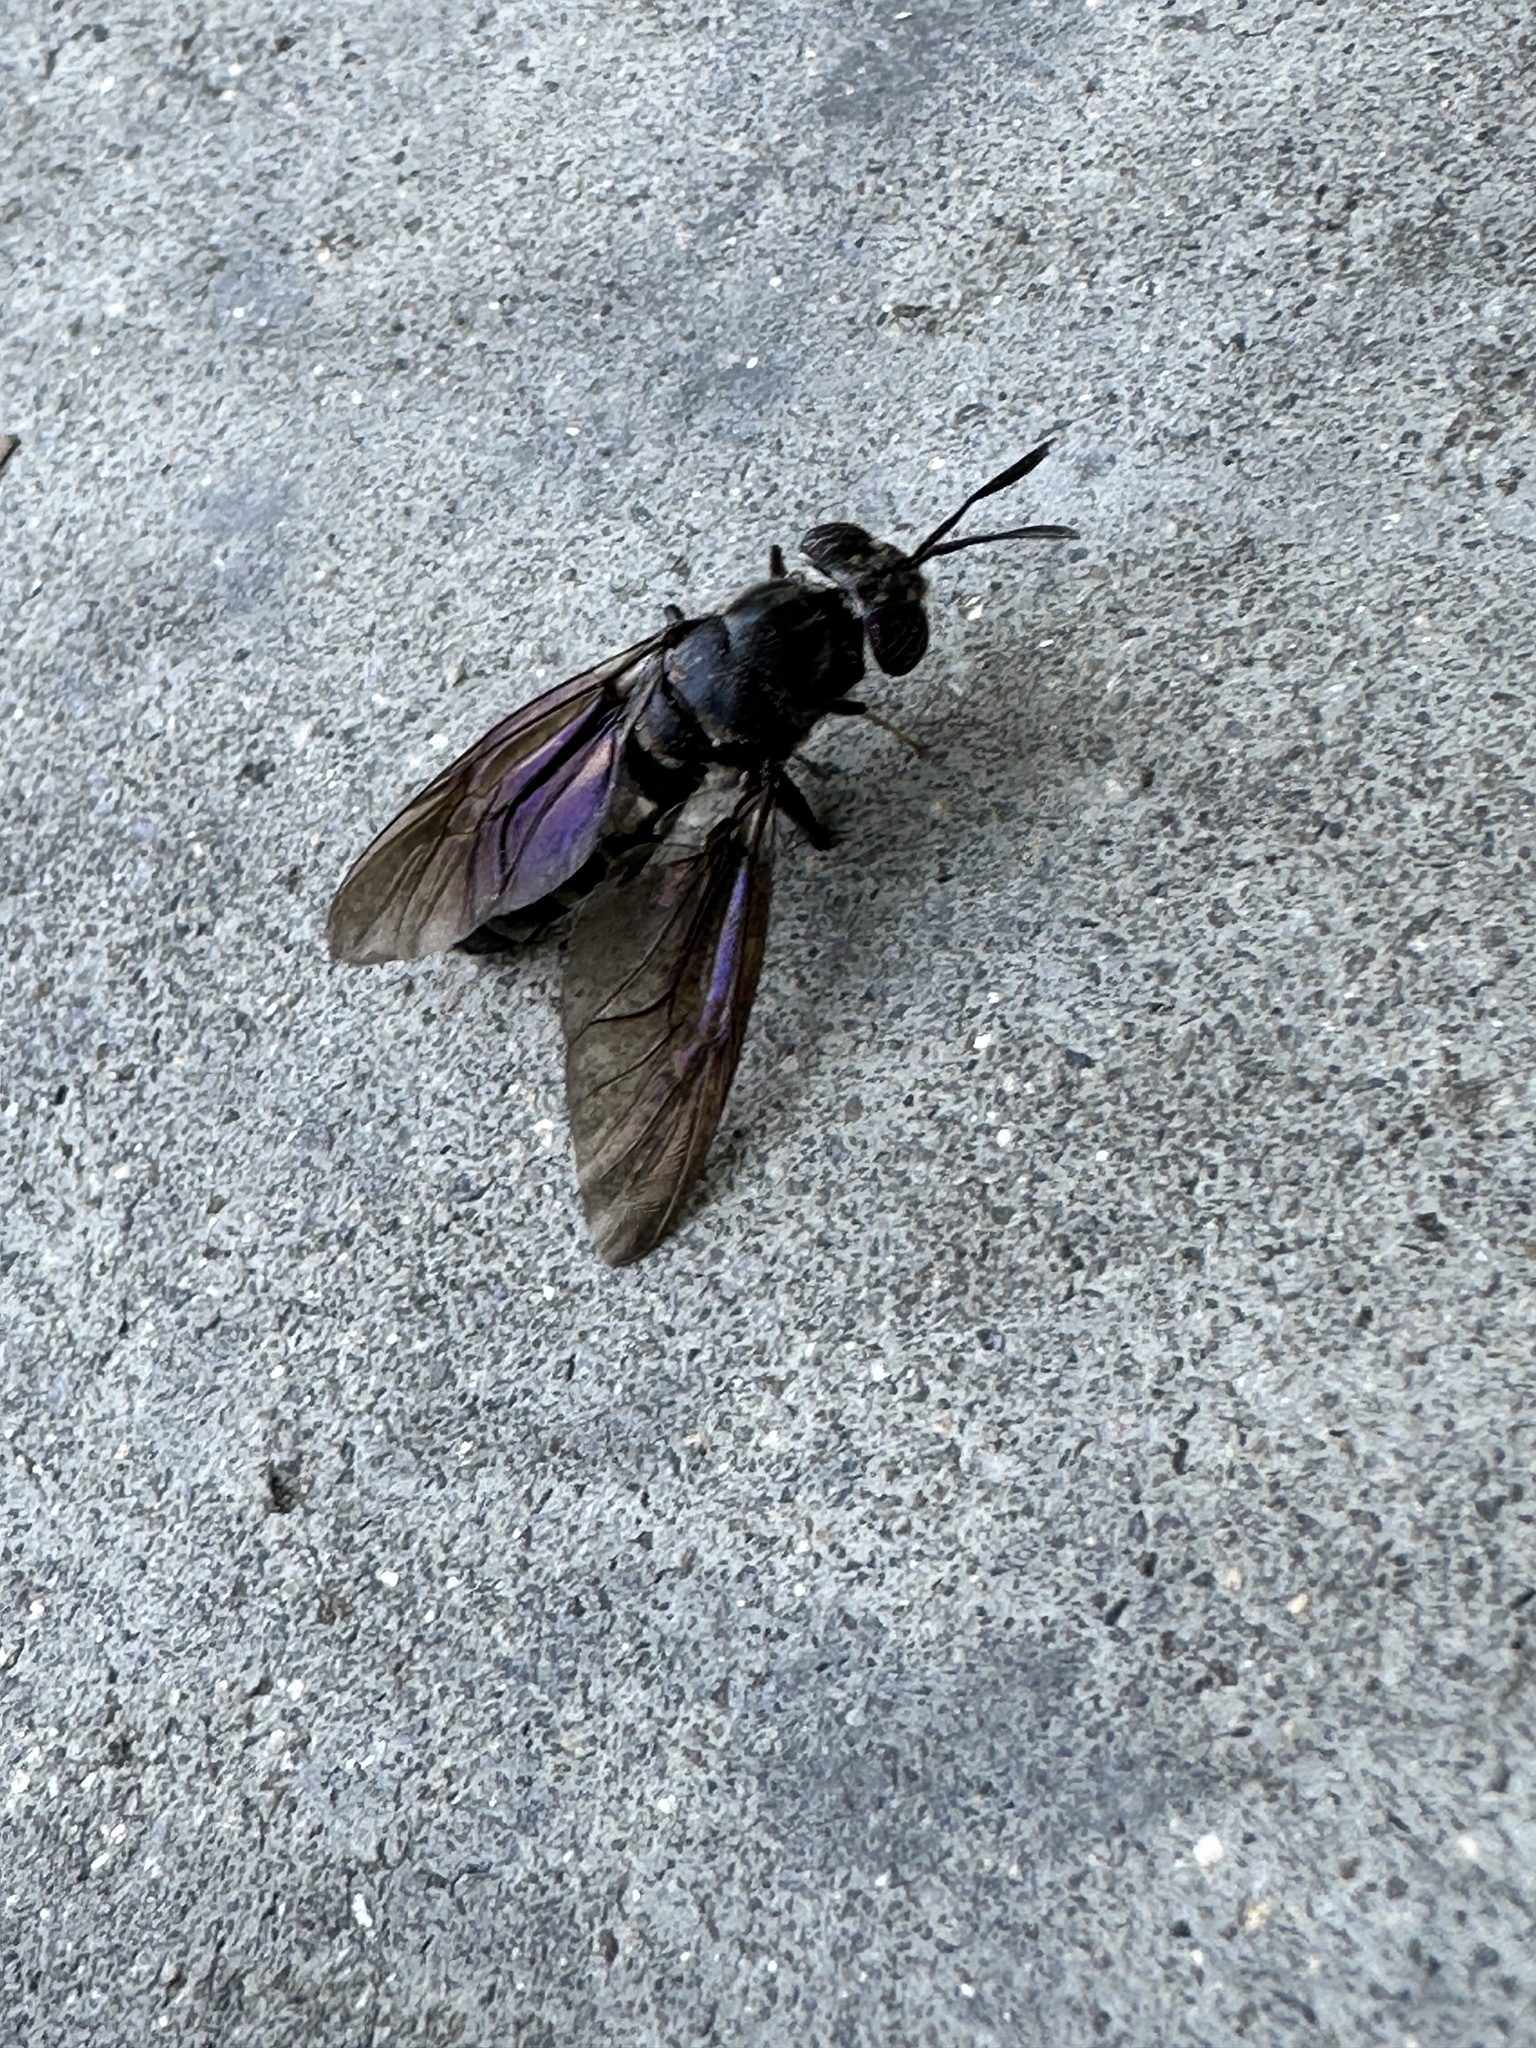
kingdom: Animalia
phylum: Arthropoda
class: Insecta
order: Diptera
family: Stratiomyidae
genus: Hermetia
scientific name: Hermetia illucens
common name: Black soldier fly
